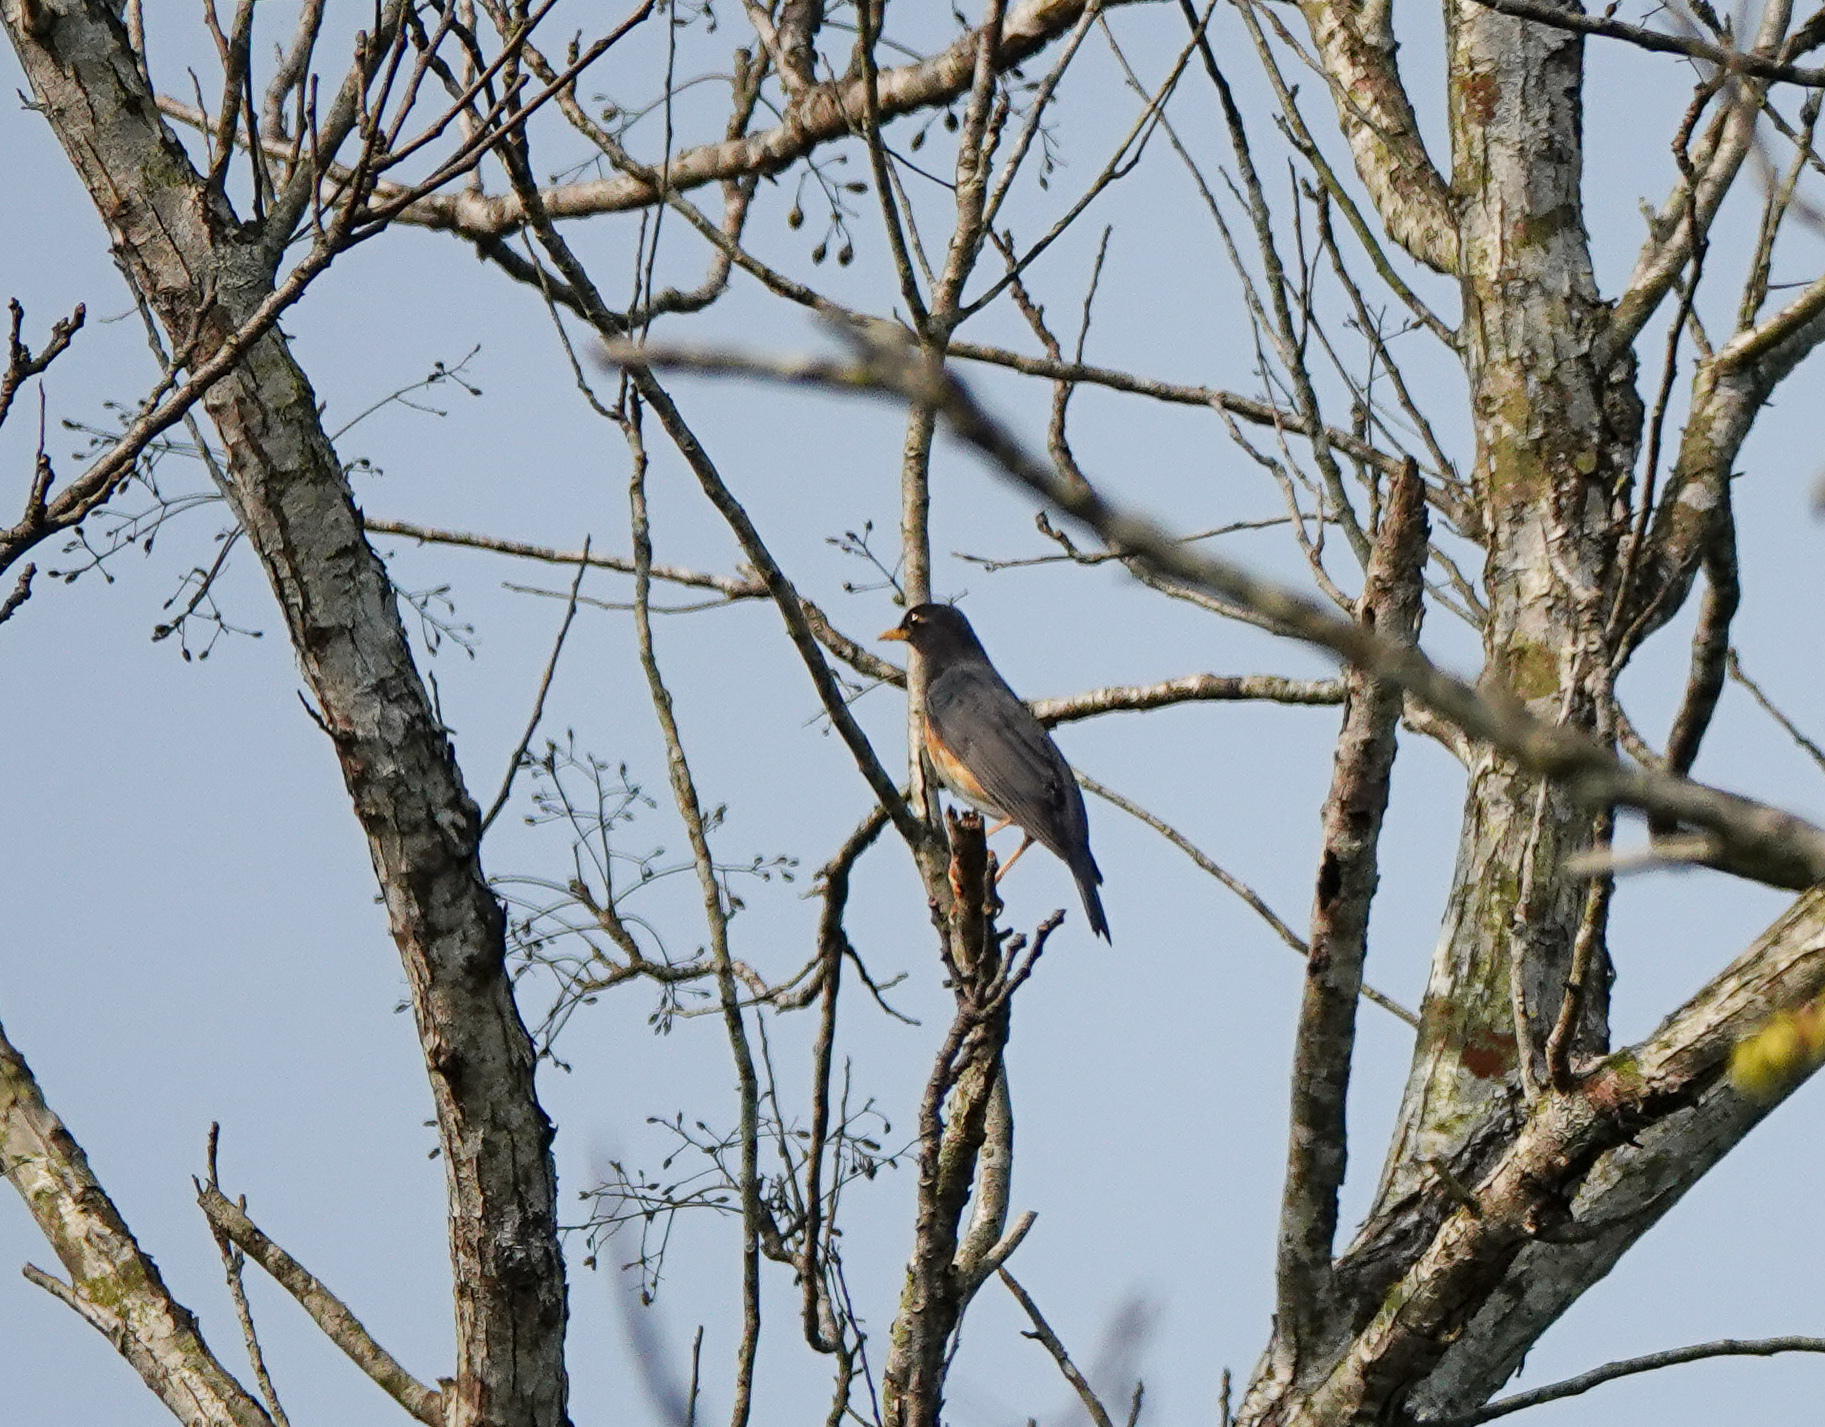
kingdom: Animalia
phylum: Chordata
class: Aves
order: Passeriformes
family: Turdidae
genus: Turdus
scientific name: Turdus dissimilis
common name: Black-breasted thrush
